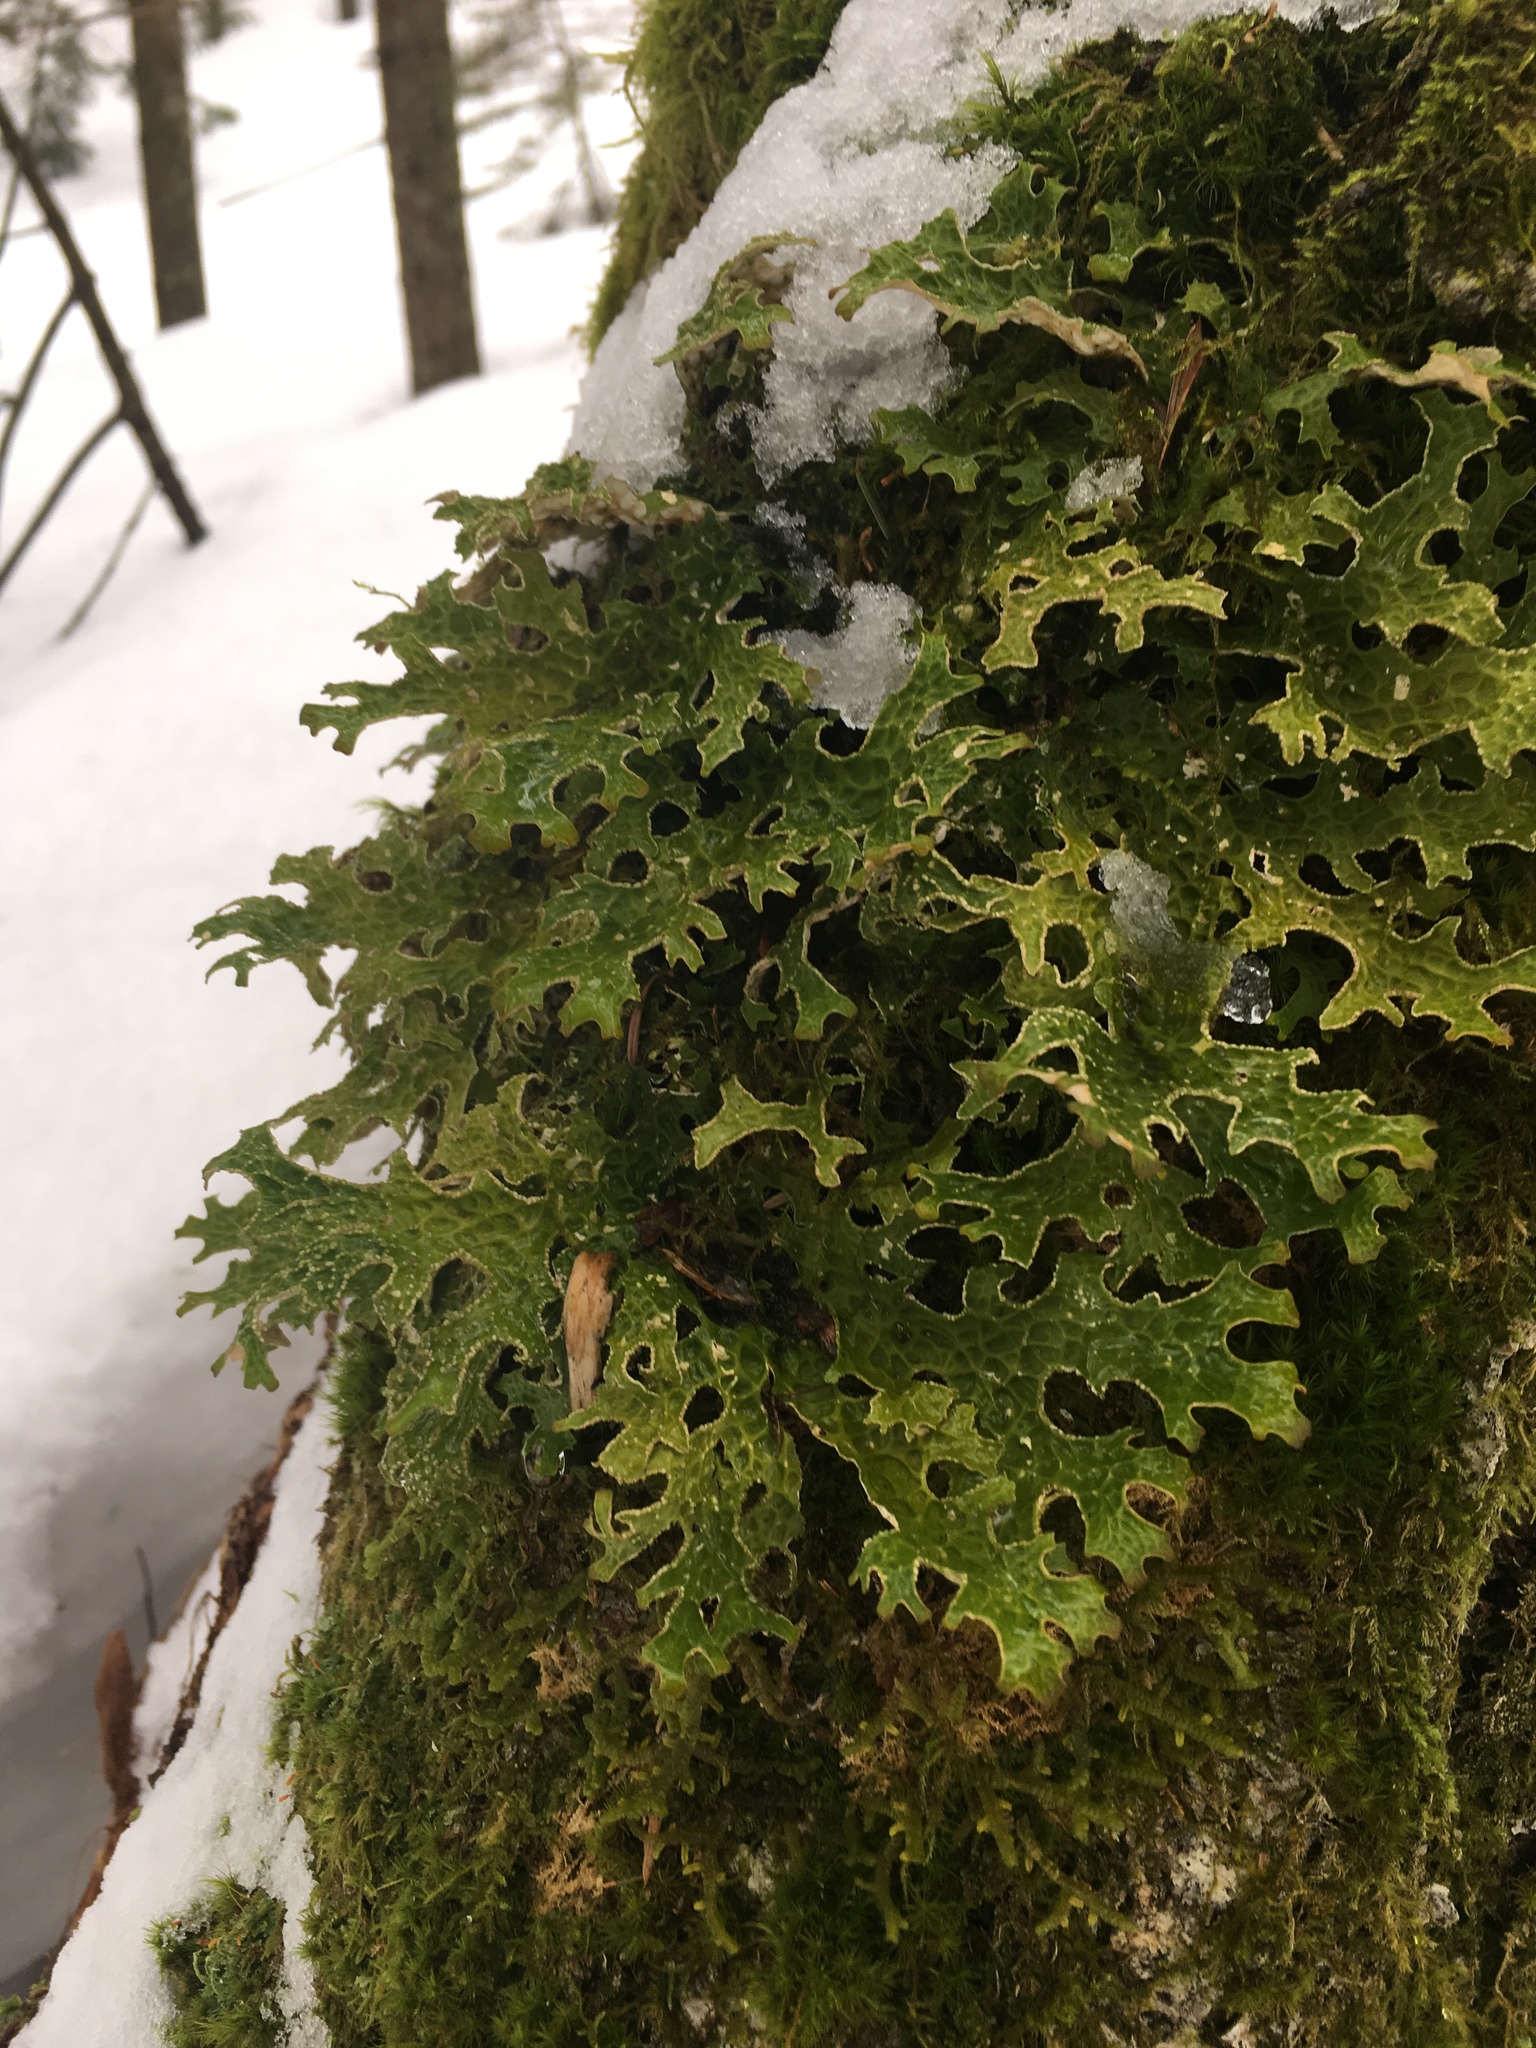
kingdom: Fungi
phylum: Ascomycota
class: Lecanoromycetes
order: Peltigerales
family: Lobariaceae
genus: Lobaria
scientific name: Lobaria pulmonaria
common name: Lungwort
